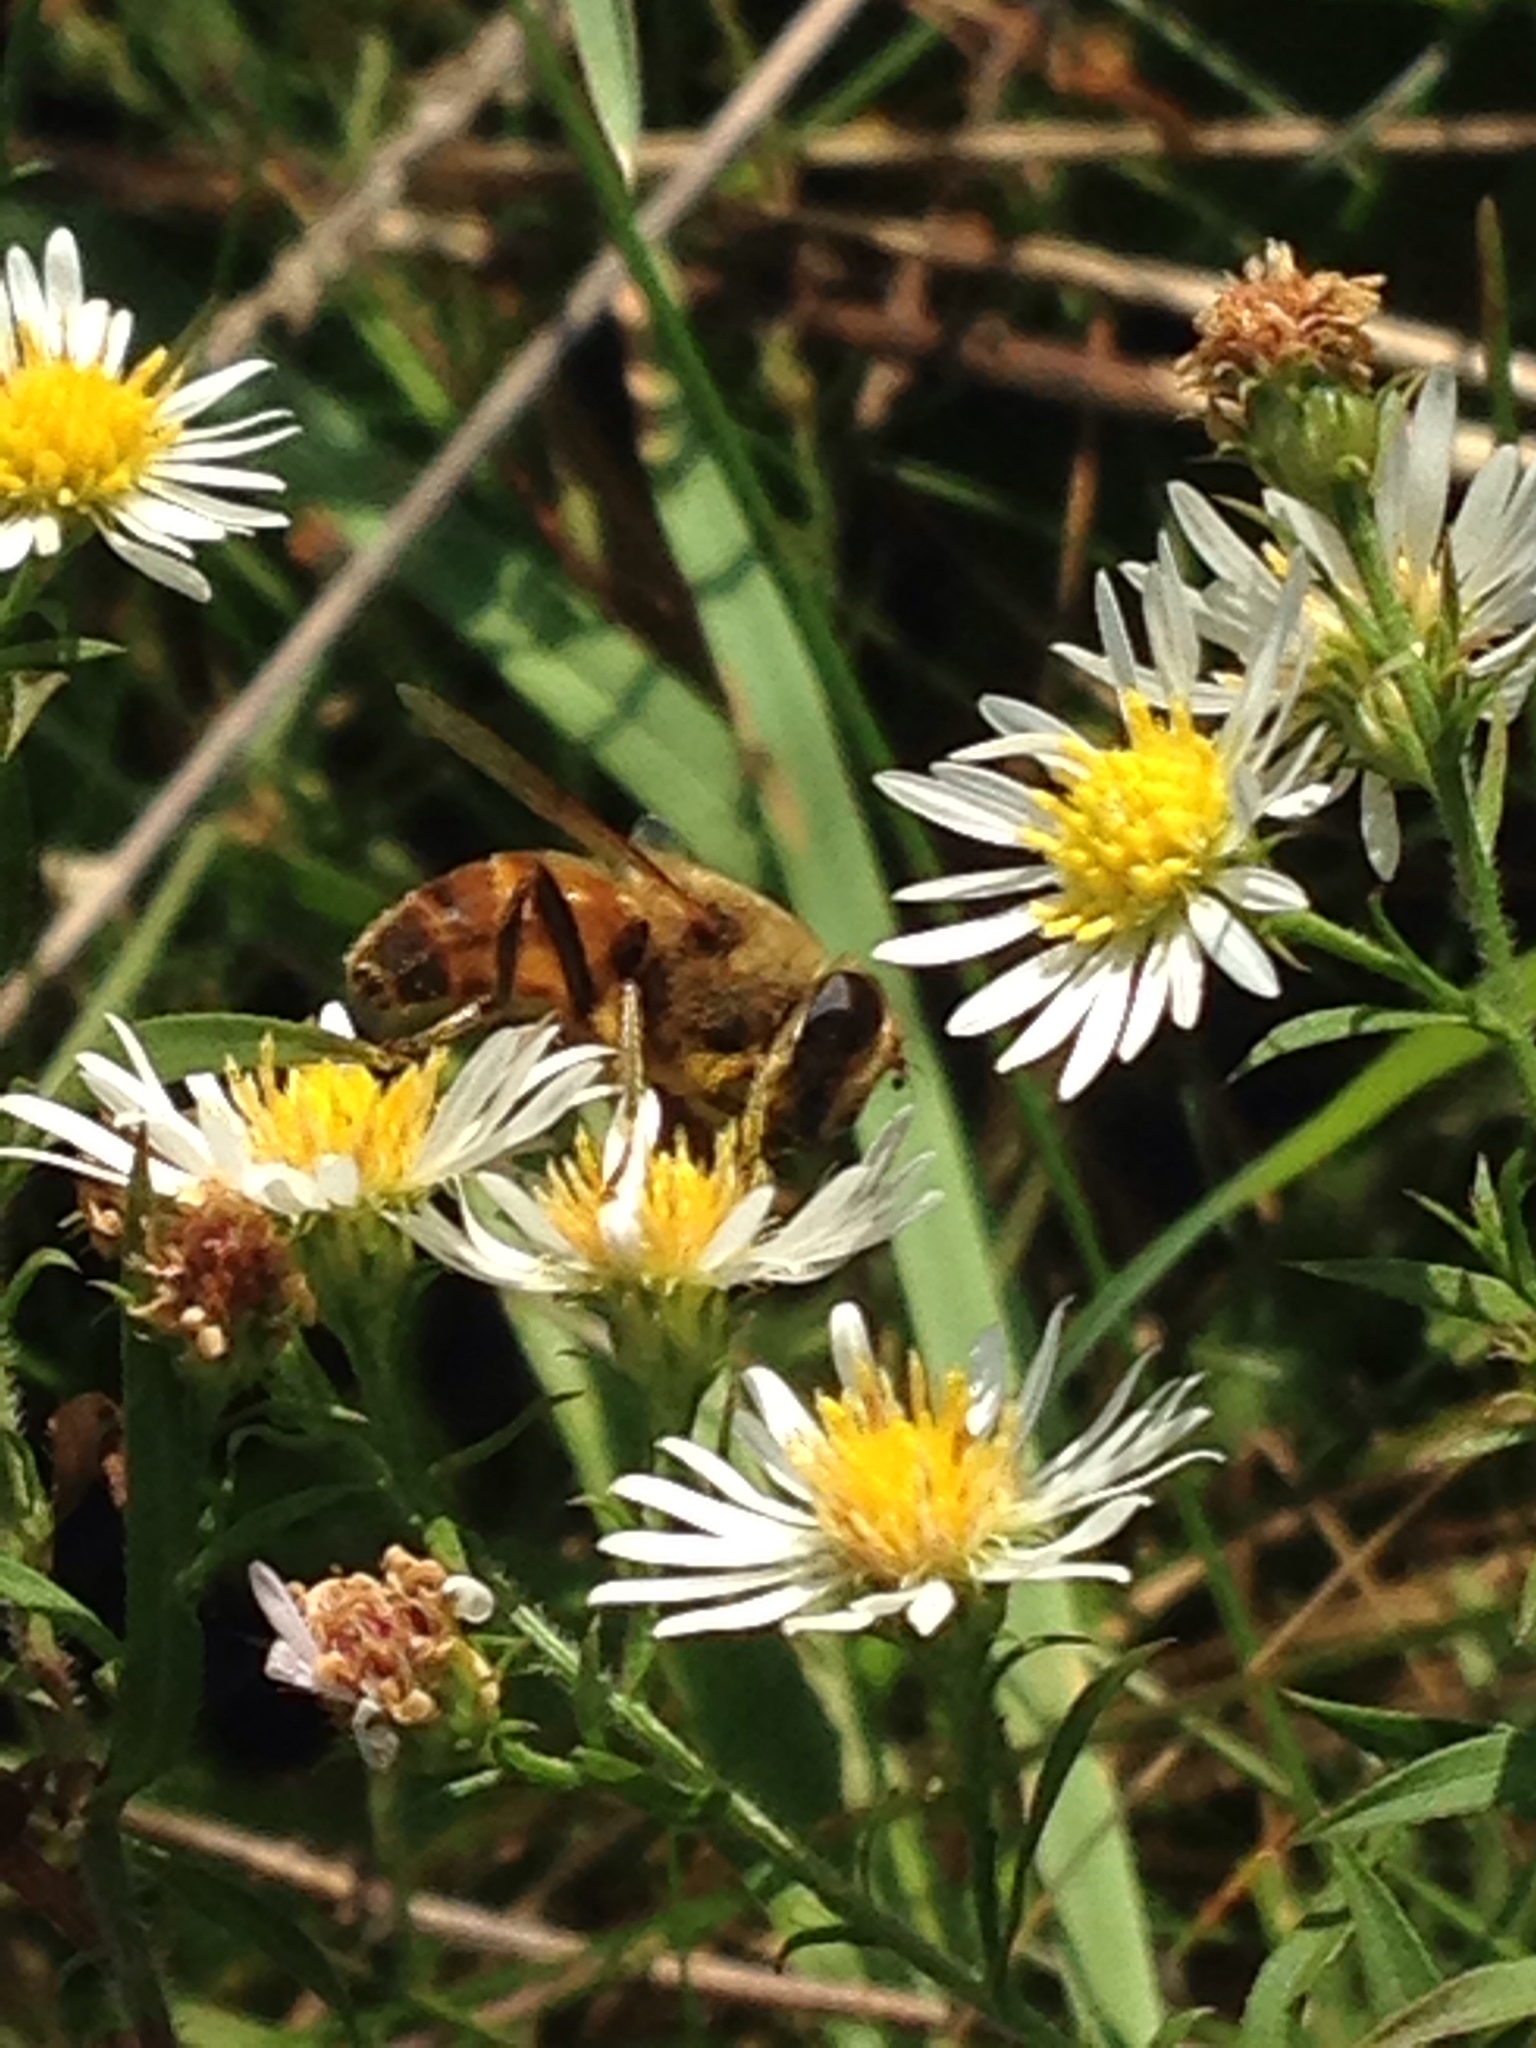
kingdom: Animalia
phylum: Arthropoda
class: Insecta
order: Diptera
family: Syrphidae
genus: Eristalis
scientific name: Eristalis tenax
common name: Drone fly
